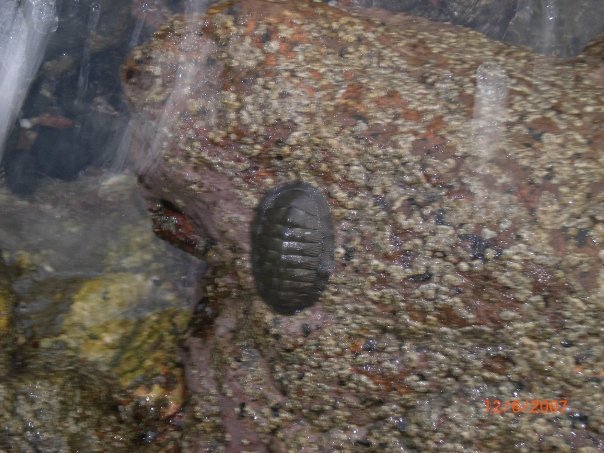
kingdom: Animalia
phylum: Mollusca
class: Polyplacophora
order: Chitonida
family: Chitonidae
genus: Chiton
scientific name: Chiton stokesii
